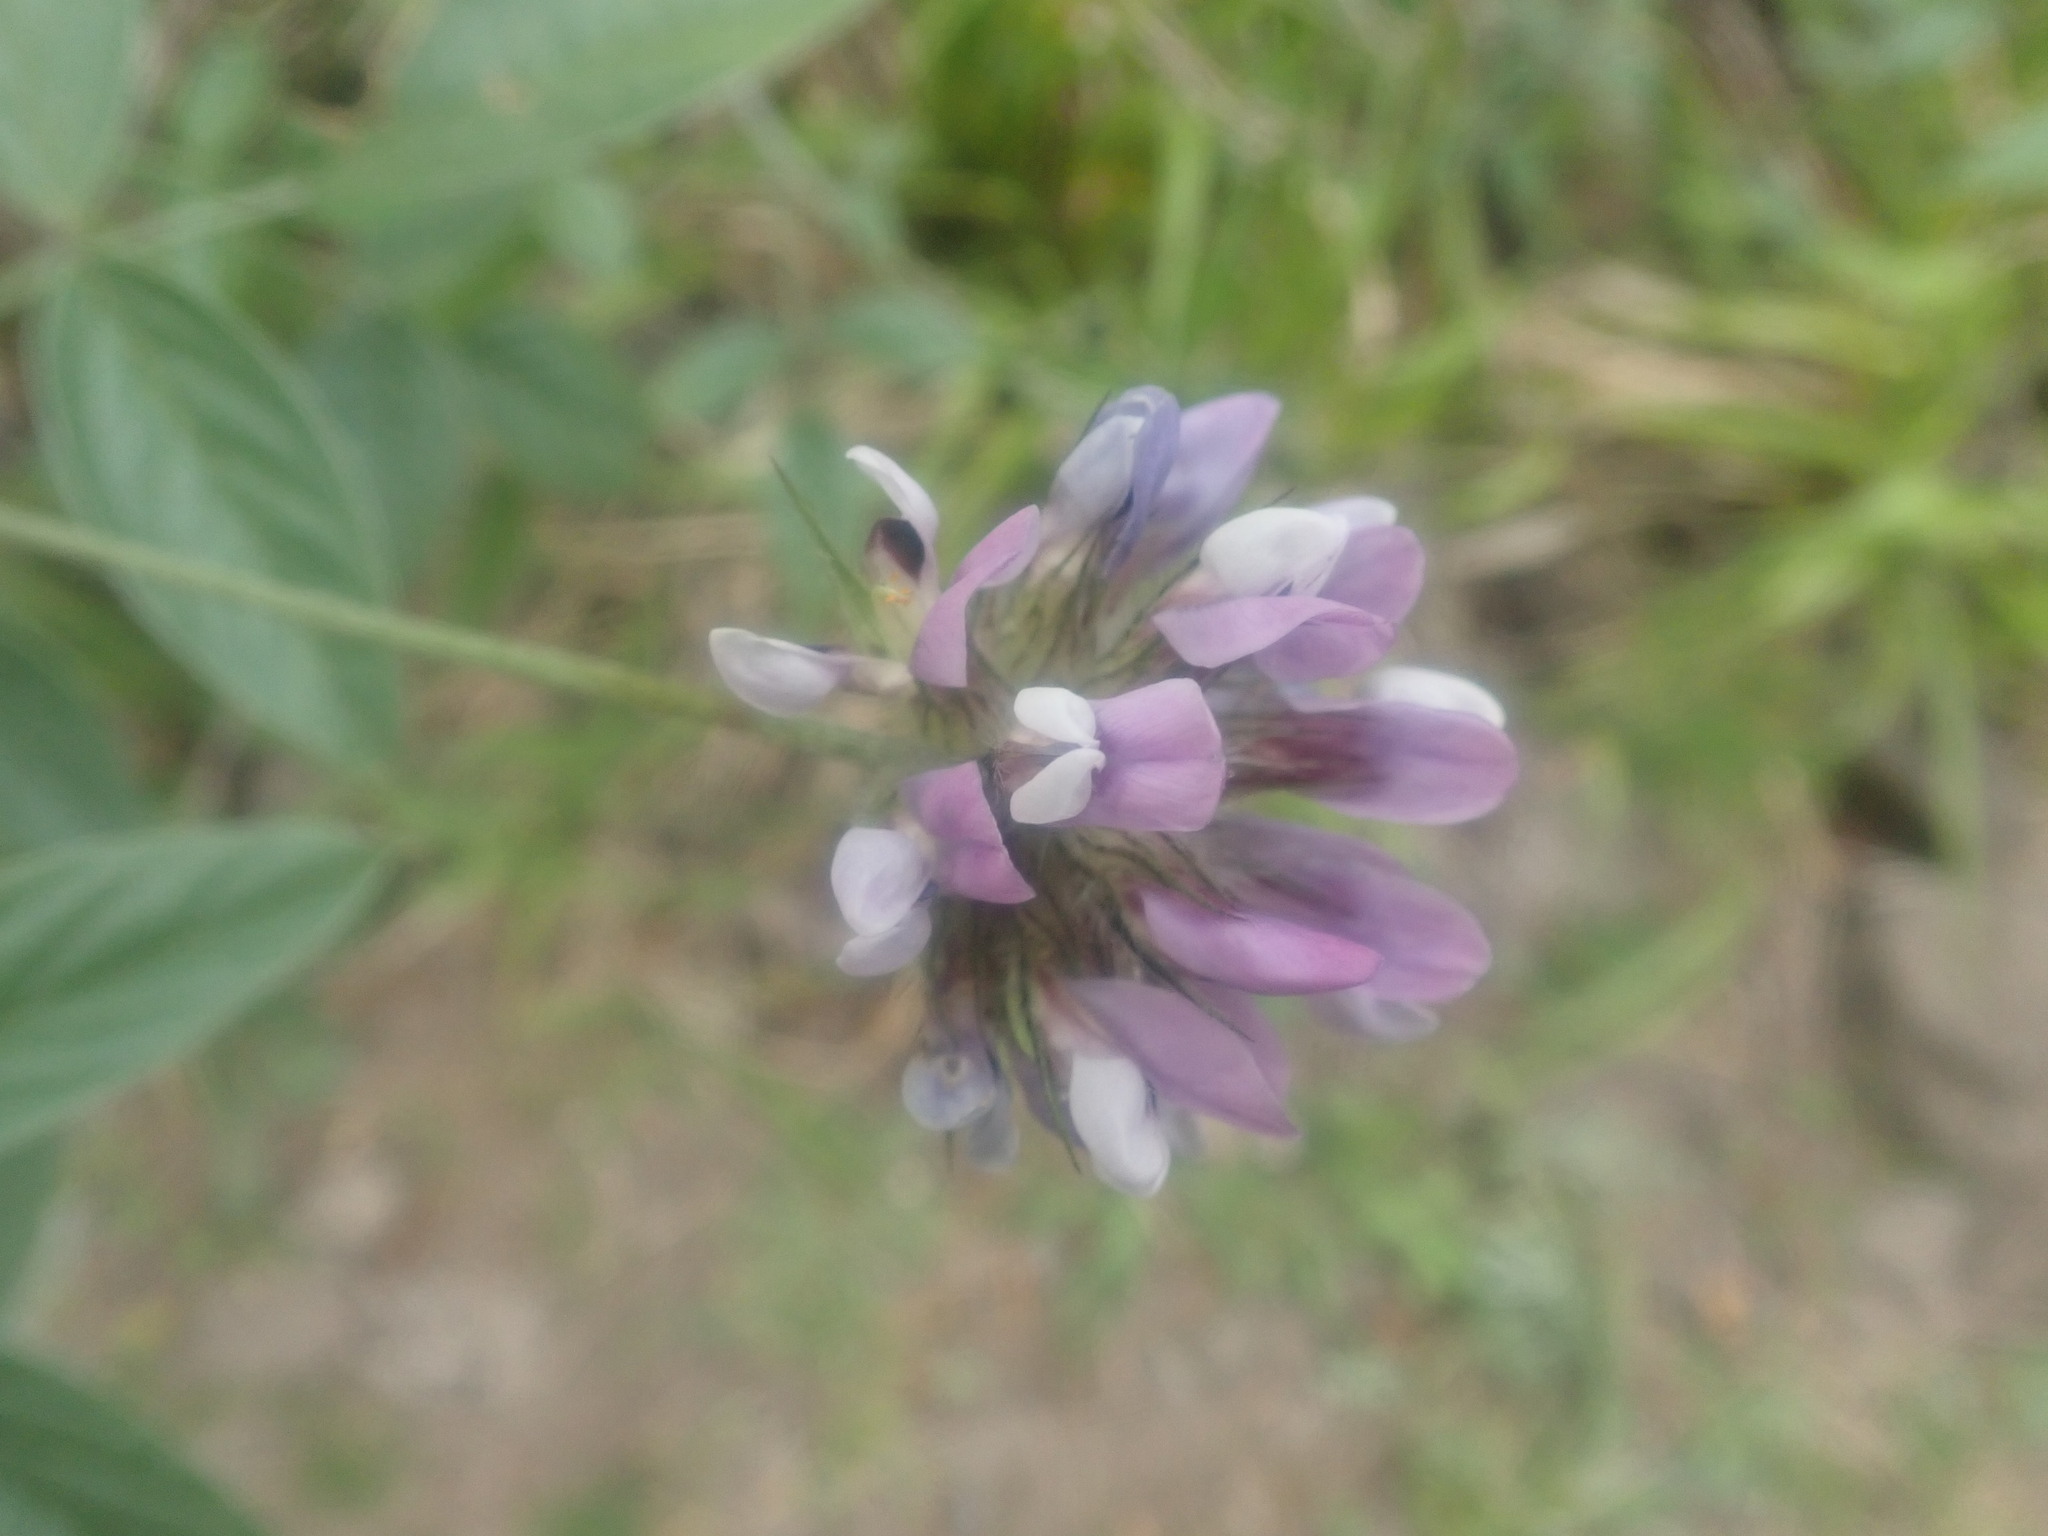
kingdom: Plantae
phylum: Tracheophyta
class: Magnoliopsida
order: Fabales
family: Fabaceae
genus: Bituminaria
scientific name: Bituminaria bituminosa
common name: Arabian pea
